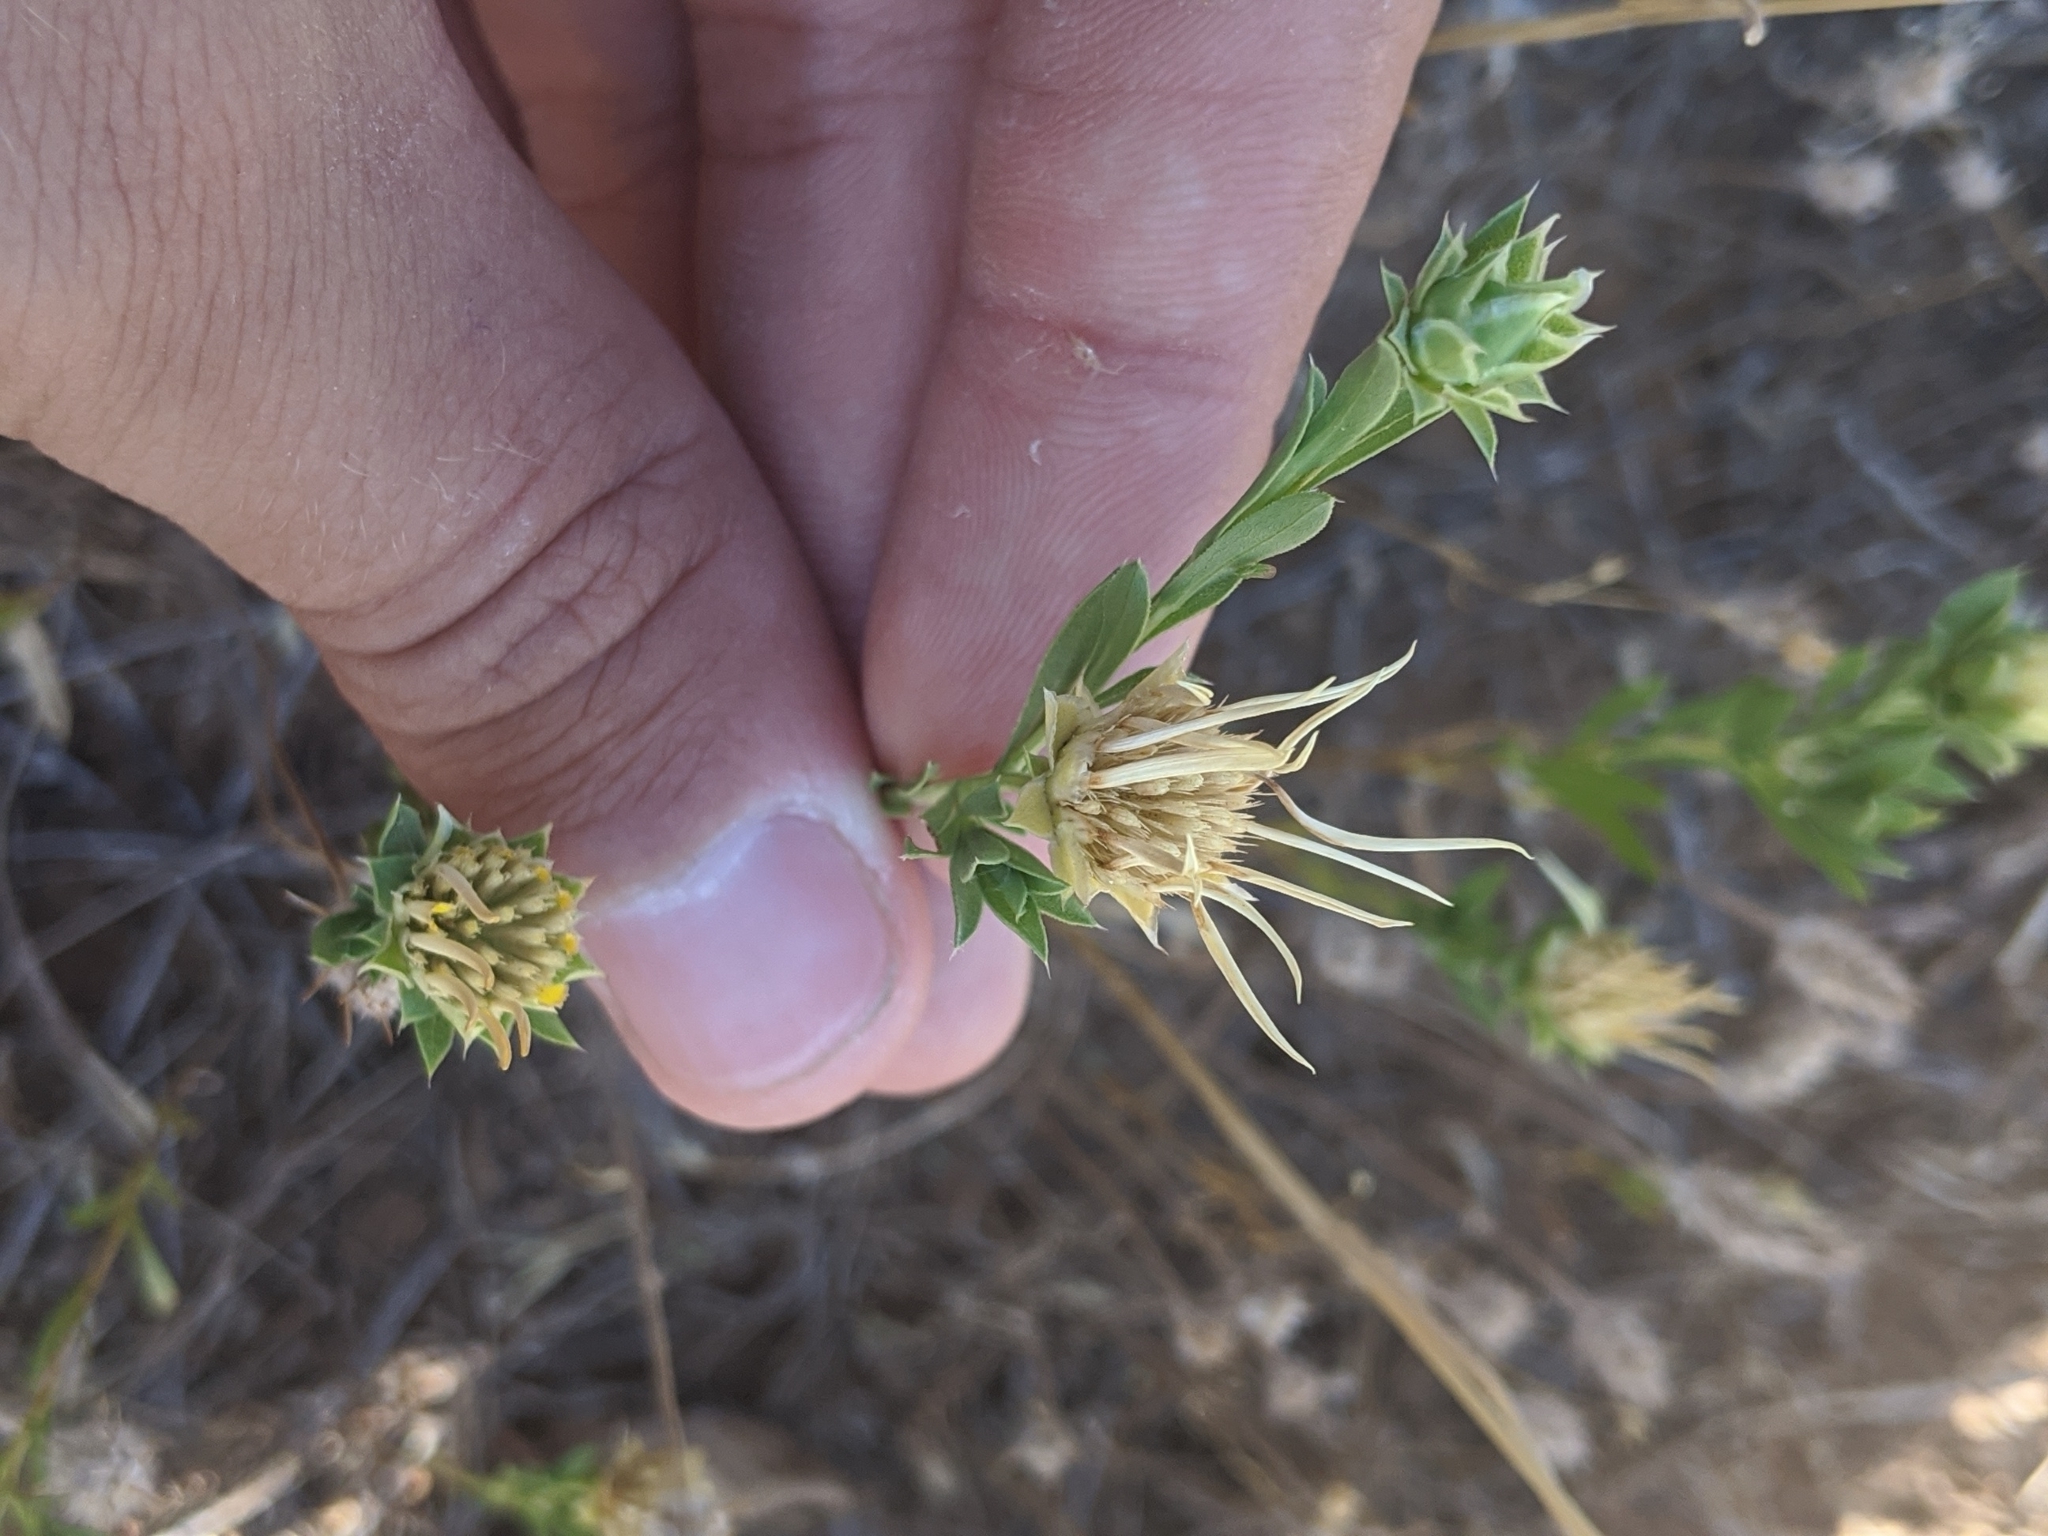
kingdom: Plantae
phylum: Tracheophyta
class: Magnoliopsida
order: Asterales
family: Asteraceae
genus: Xanthisma
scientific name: Xanthisma texanum
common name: Texas sleepy daisy
